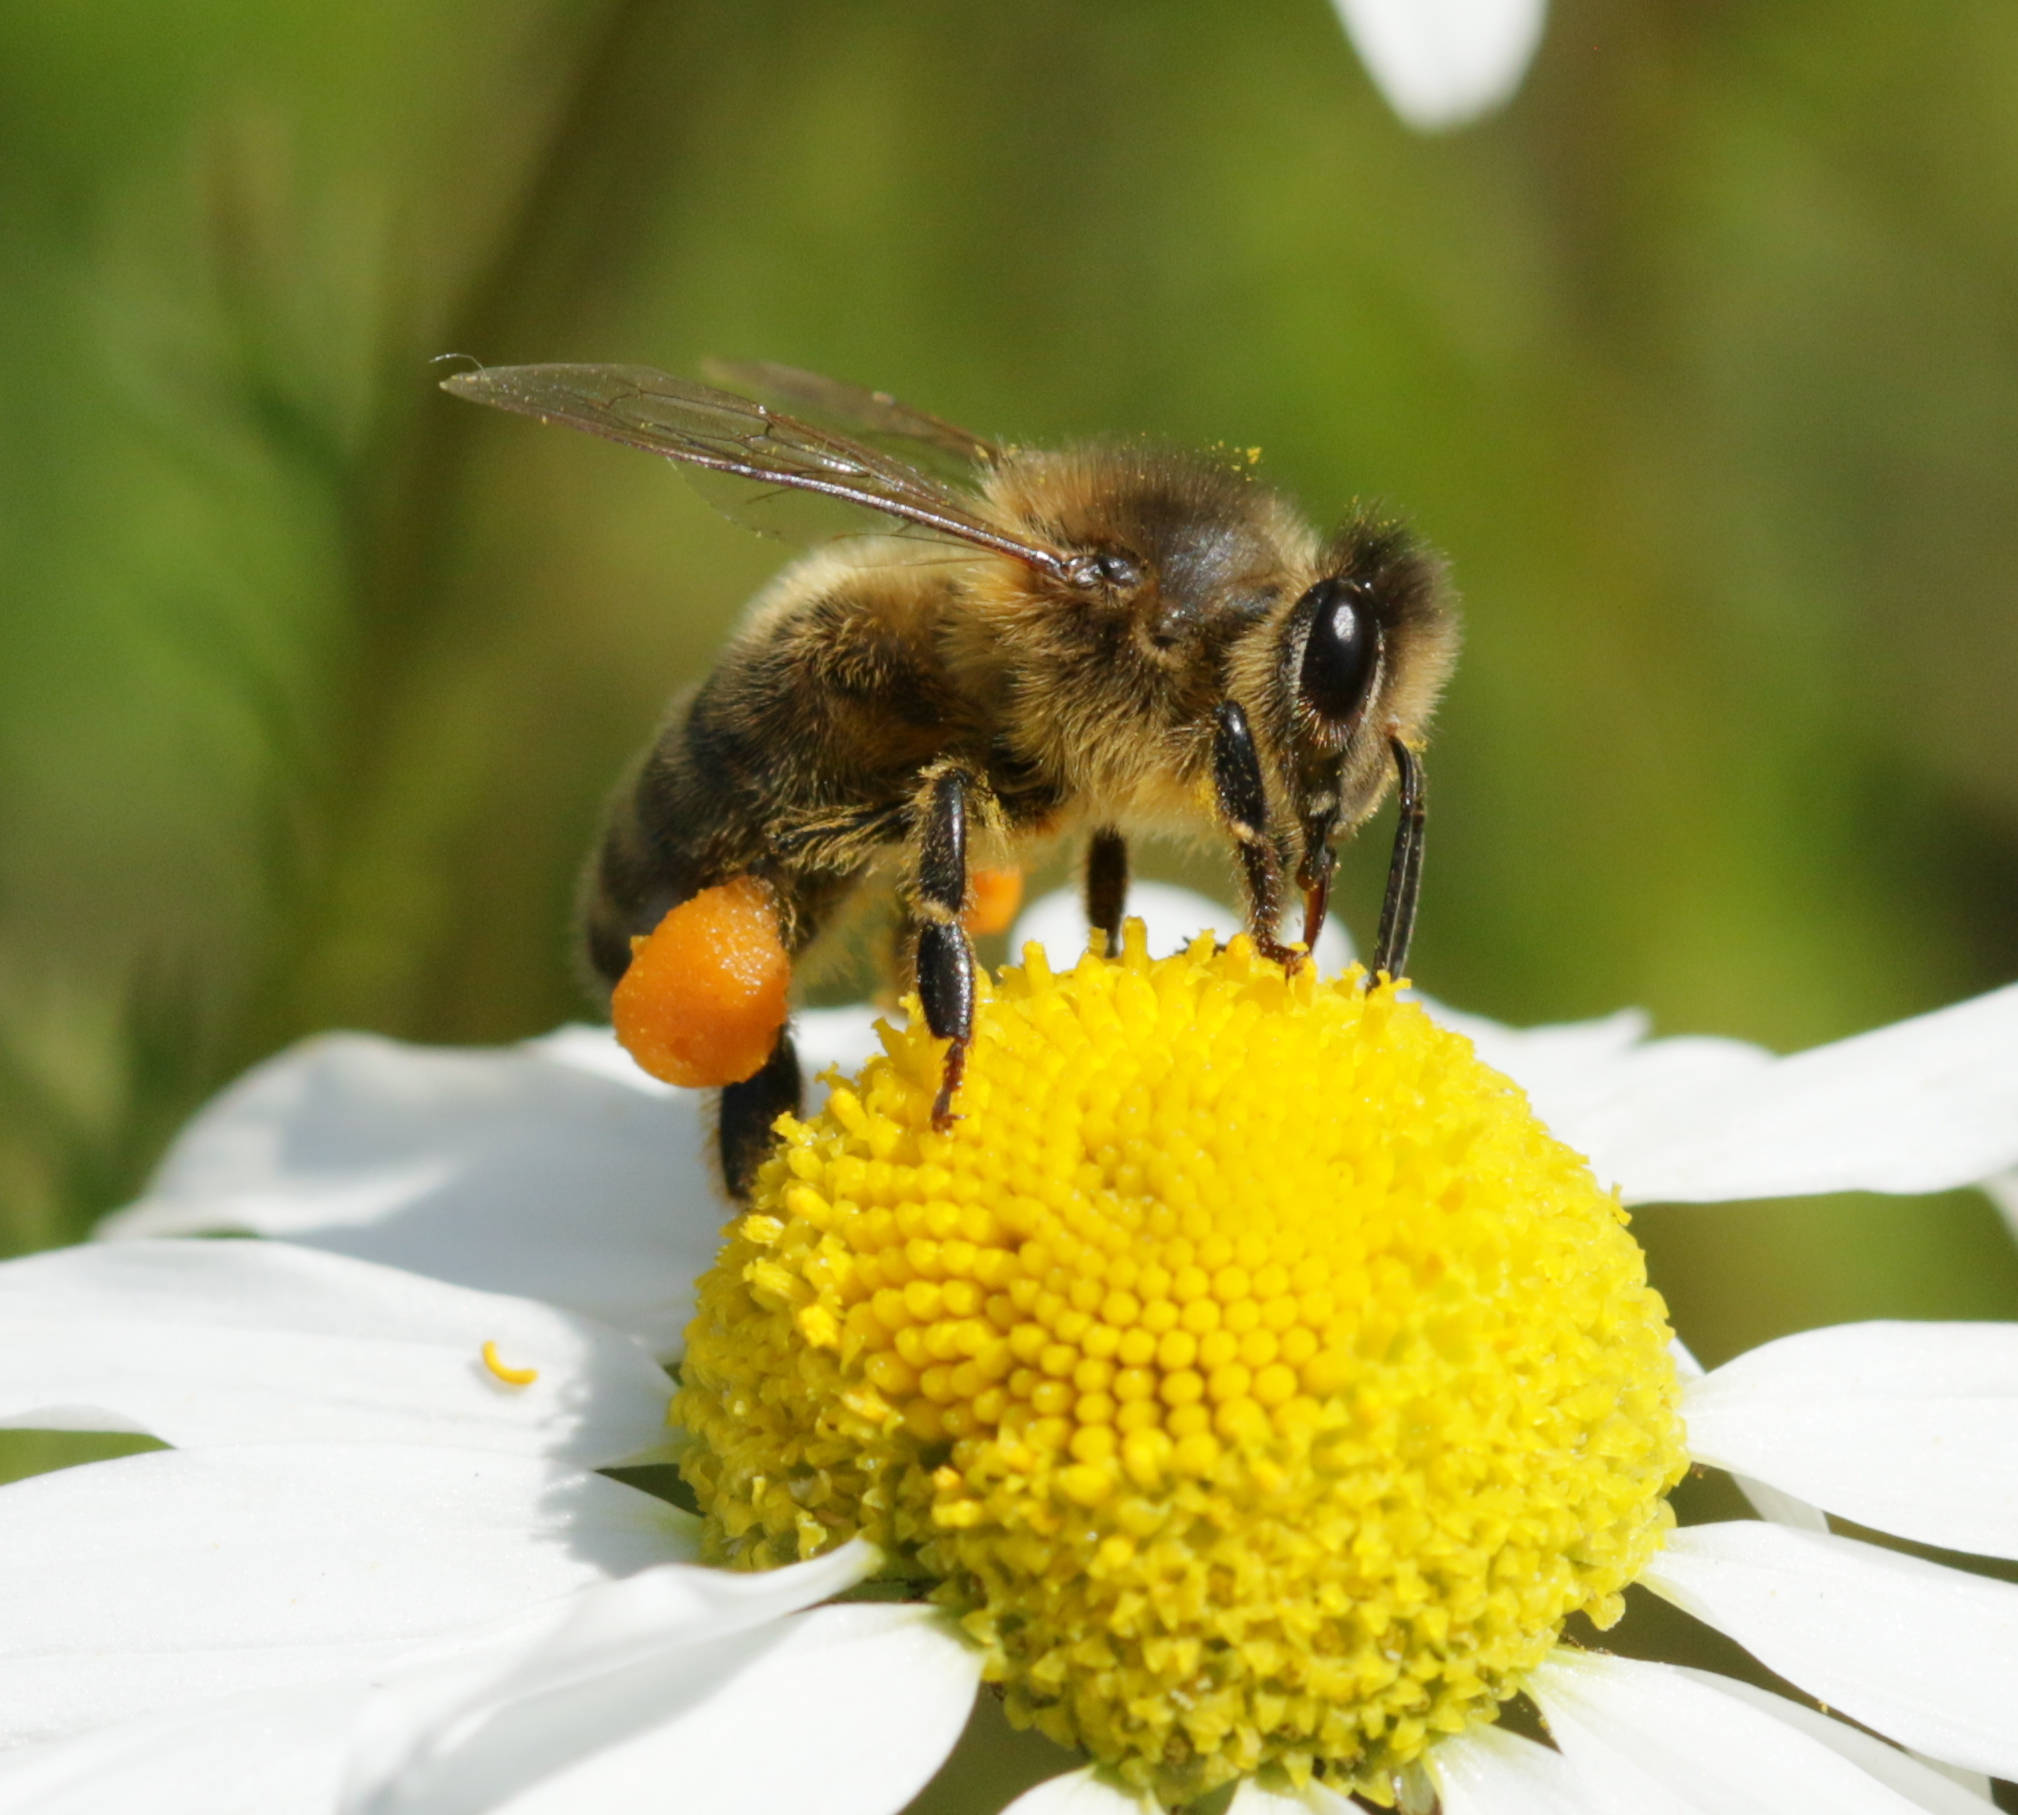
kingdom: Animalia
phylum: Arthropoda
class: Insecta
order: Hymenoptera
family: Apidae
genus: Apis
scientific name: Apis mellifera
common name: Honey bee
